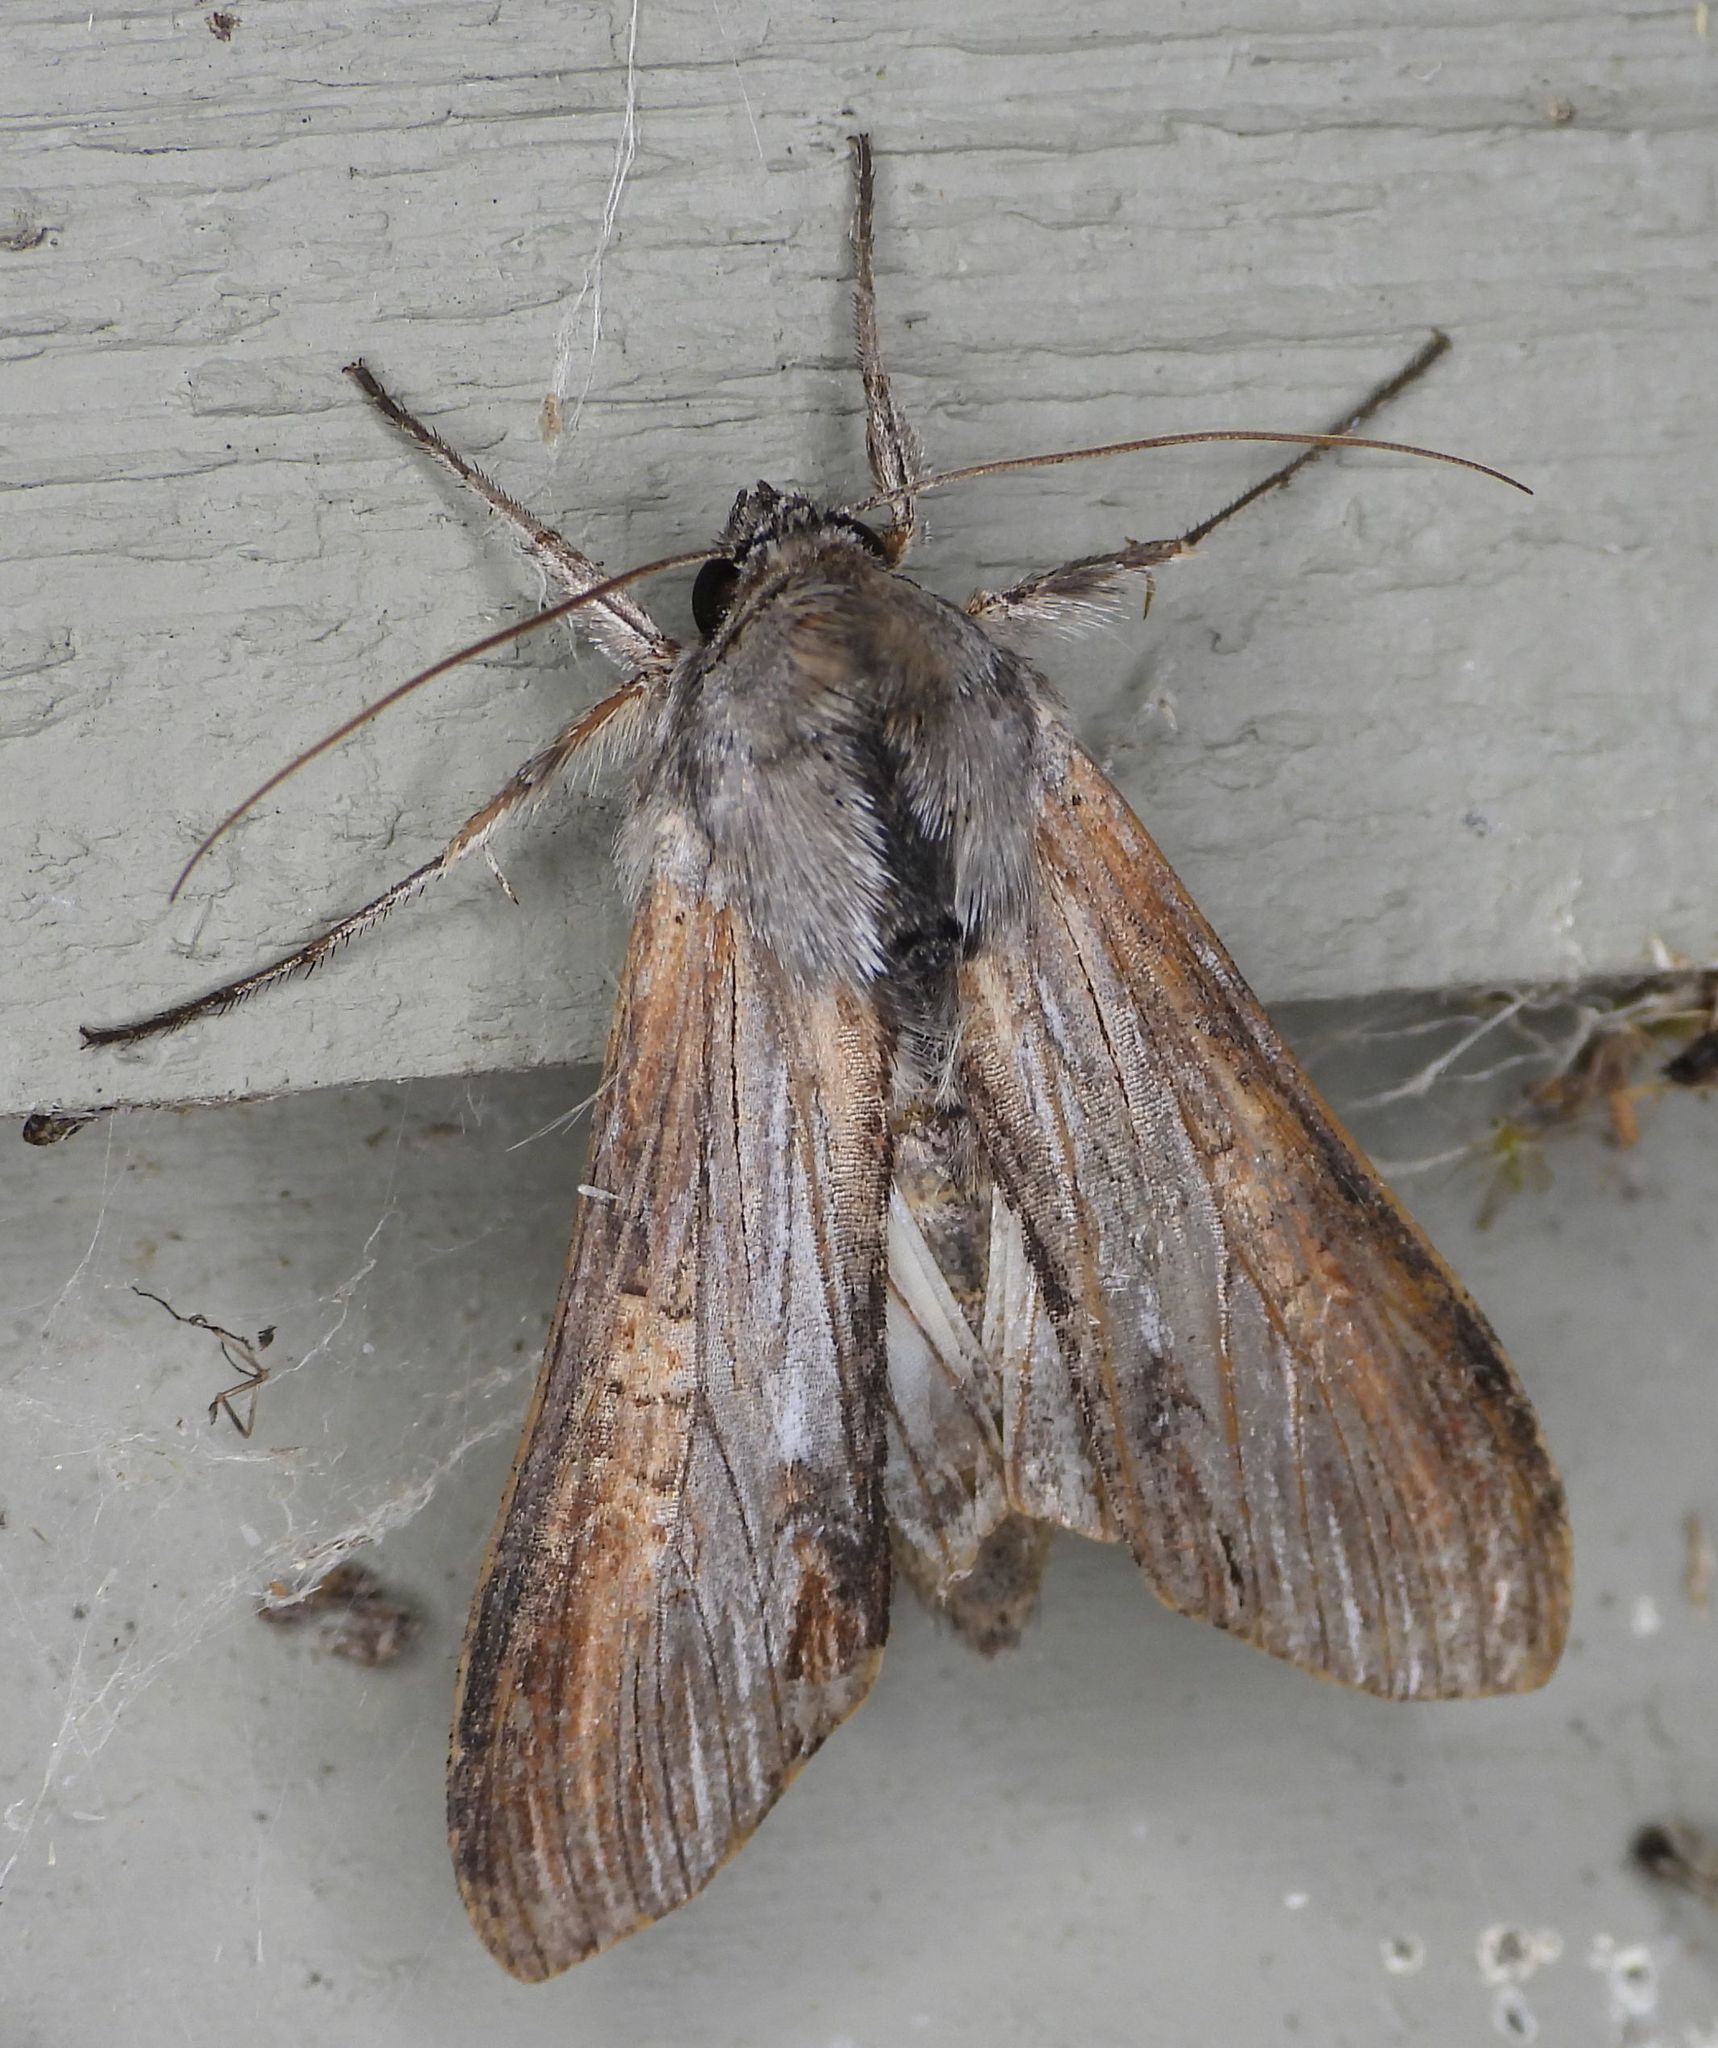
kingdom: Animalia
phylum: Arthropoda
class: Insecta
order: Lepidoptera
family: Noctuidae
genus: Cucullia
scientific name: Cucullia asteroides
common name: Asteroid moth
